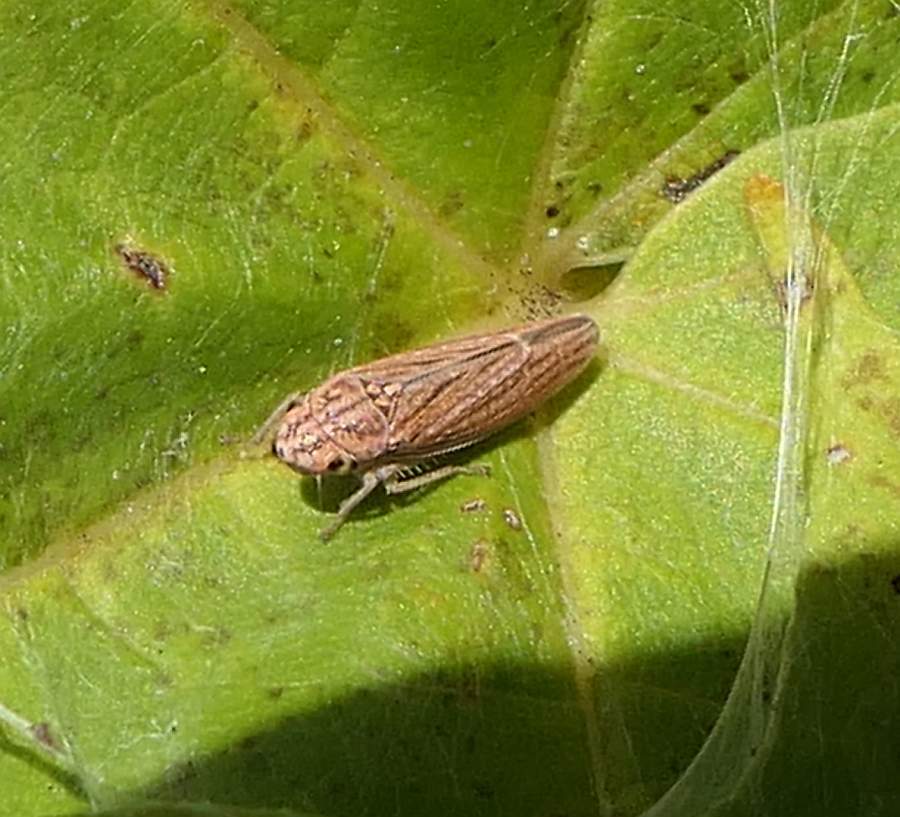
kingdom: Animalia
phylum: Arthropoda
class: Insecta
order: Hemiptera
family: Cicadellidae
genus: Neokolla
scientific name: Neokolla hieroglyphica
